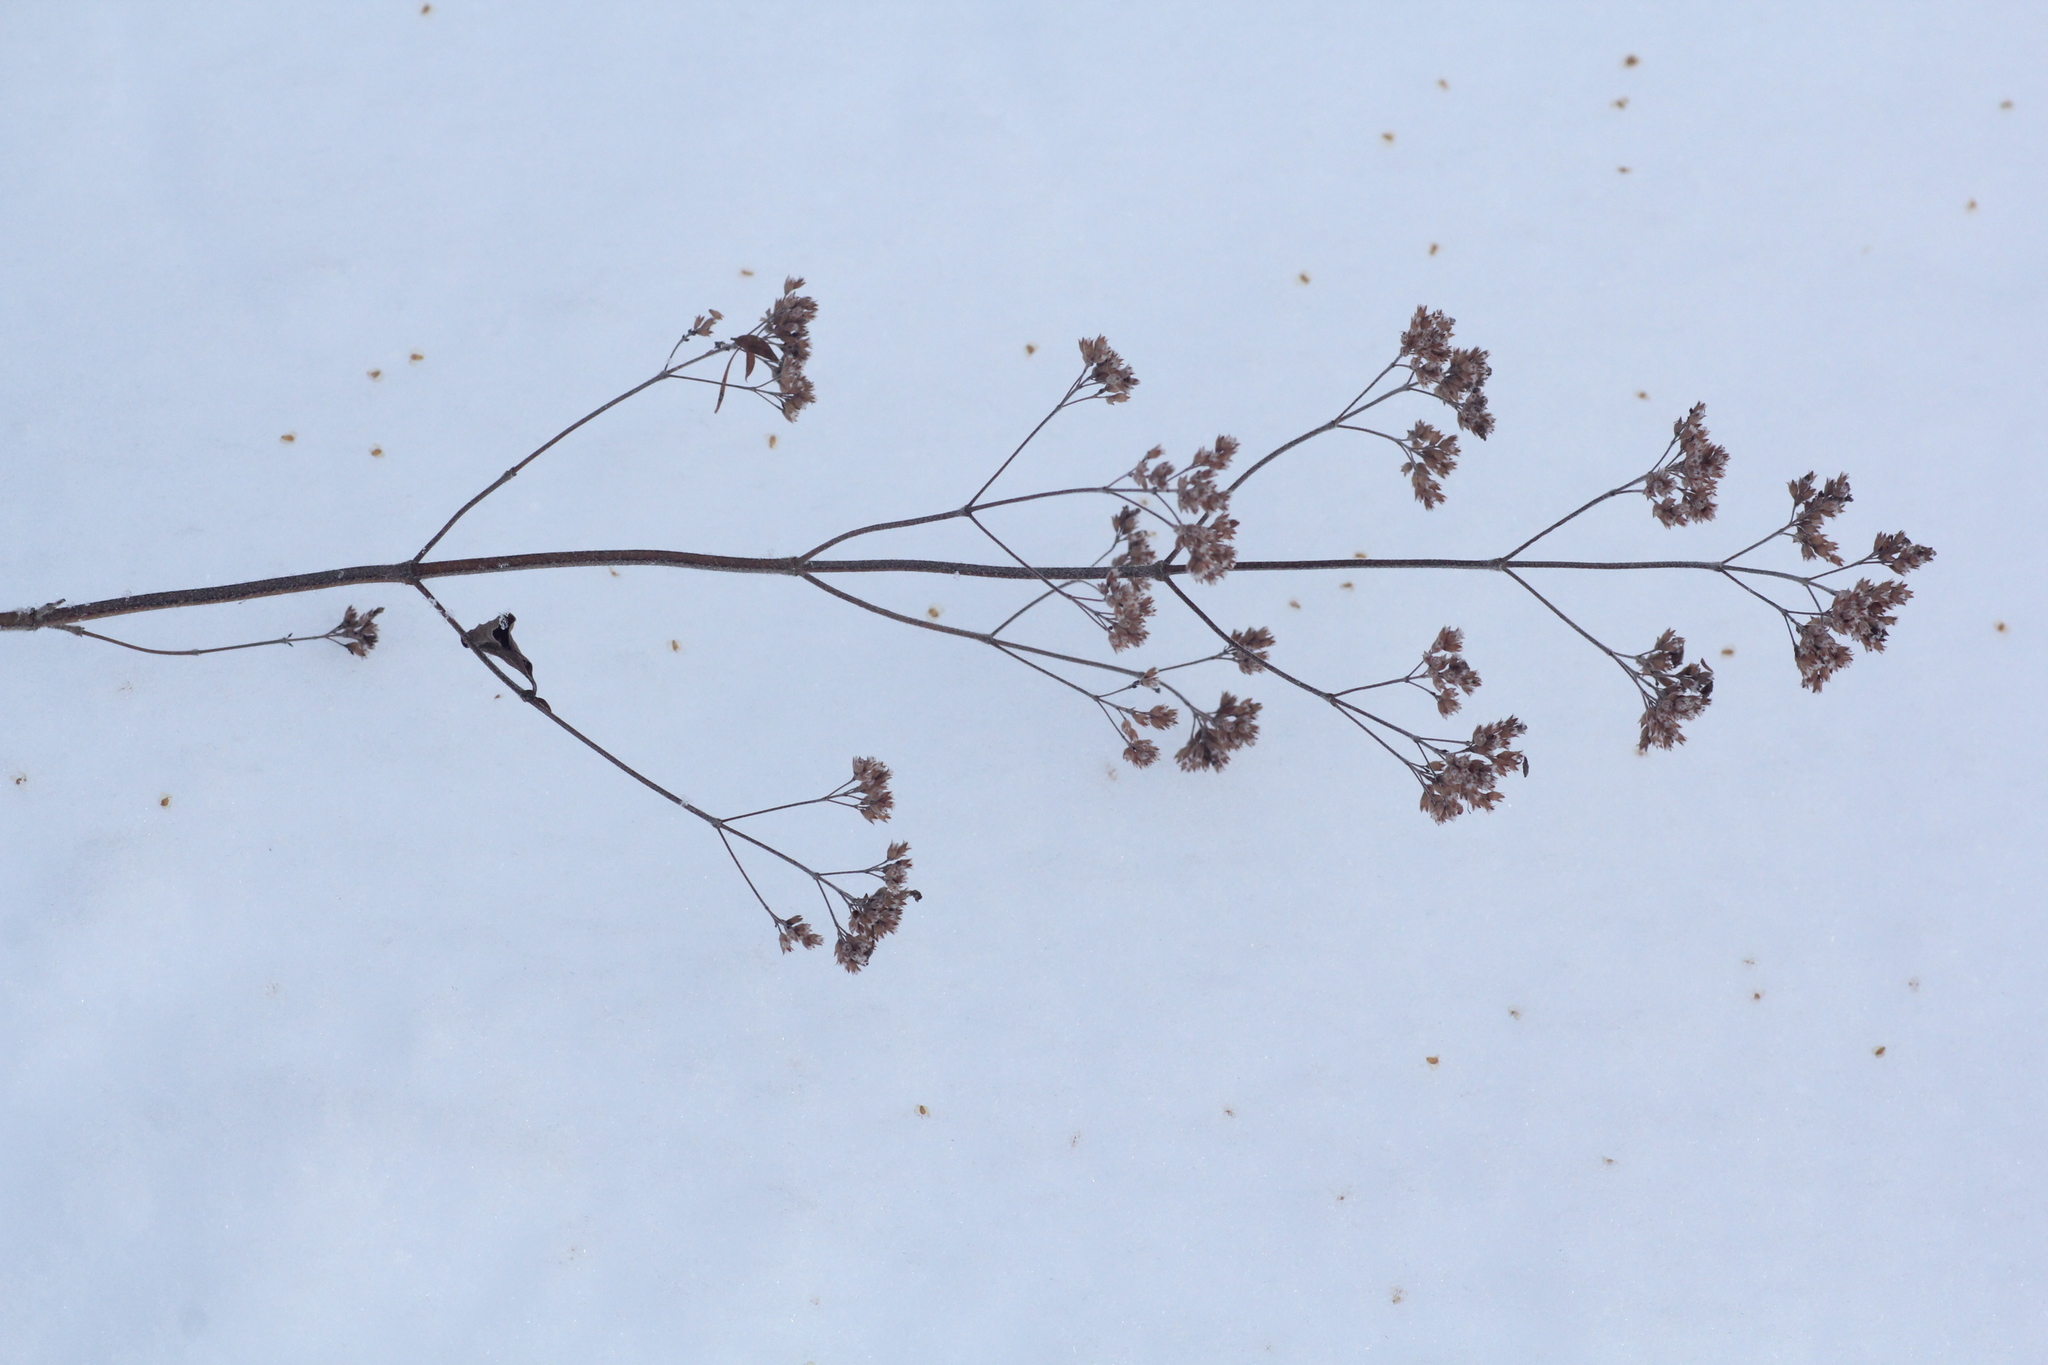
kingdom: Plantae
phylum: Tracheophyta
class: Magnoliopsida
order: Lamiales
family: Lamiaceae
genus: Origanum
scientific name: Origanum vulgare
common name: Wild marjoram
